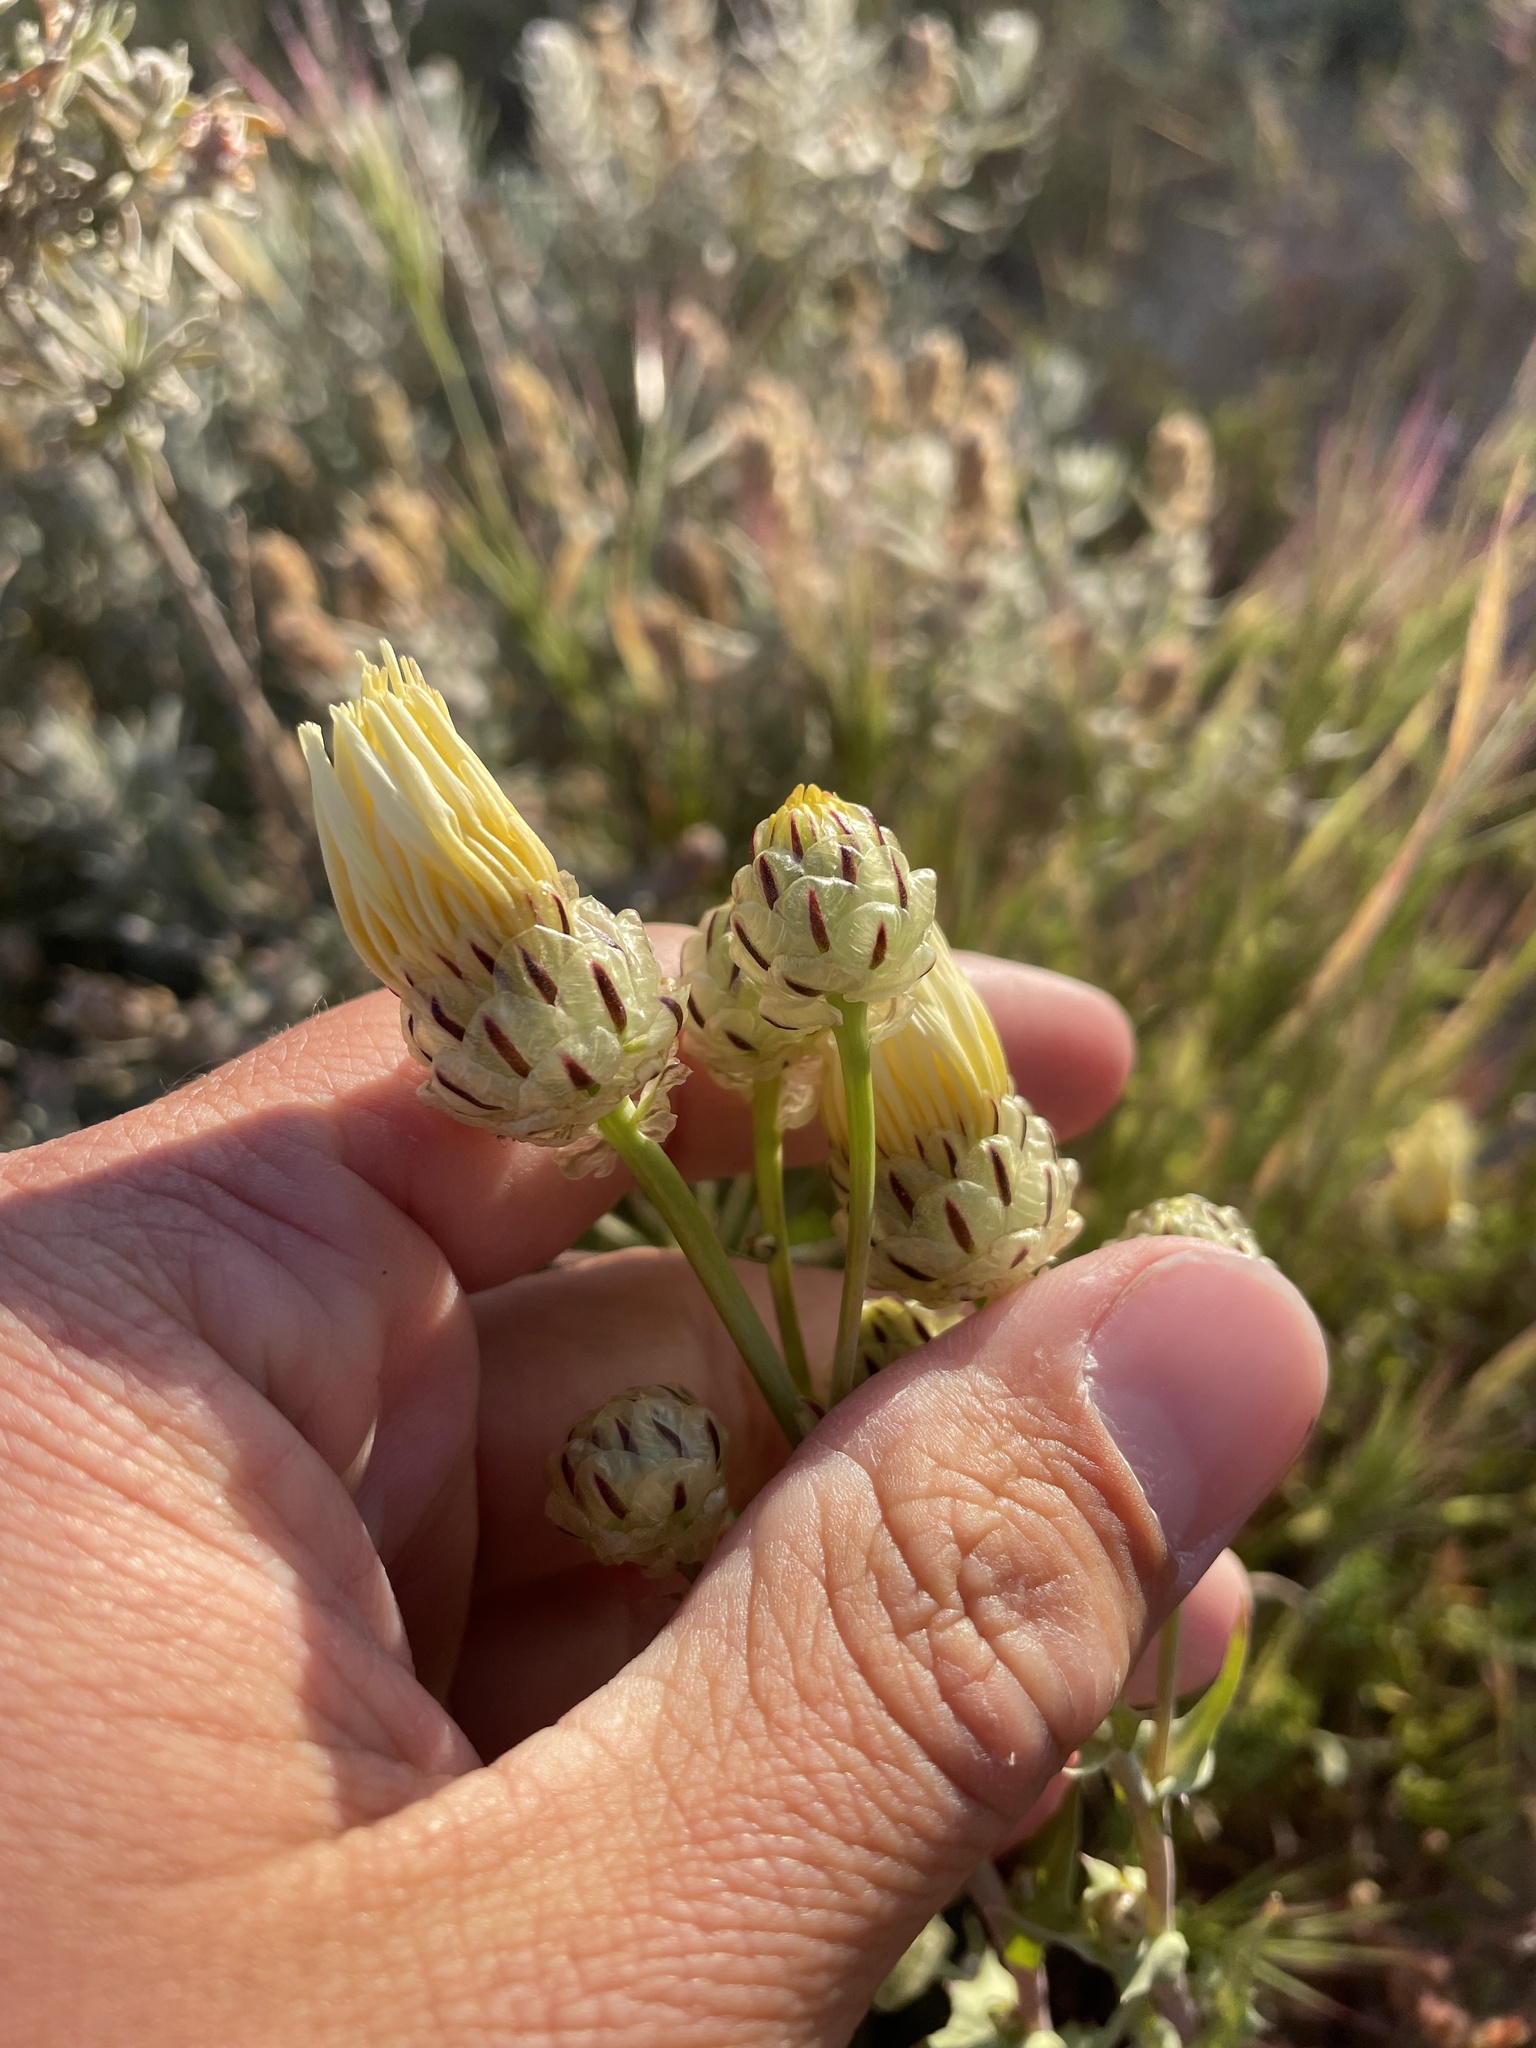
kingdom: Plantae
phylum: Tracheophyta
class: Magnoliopsida
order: Asterales
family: Asteraceae
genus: Malacothrix
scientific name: Malacothrix coulteri
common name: Snake's-head
